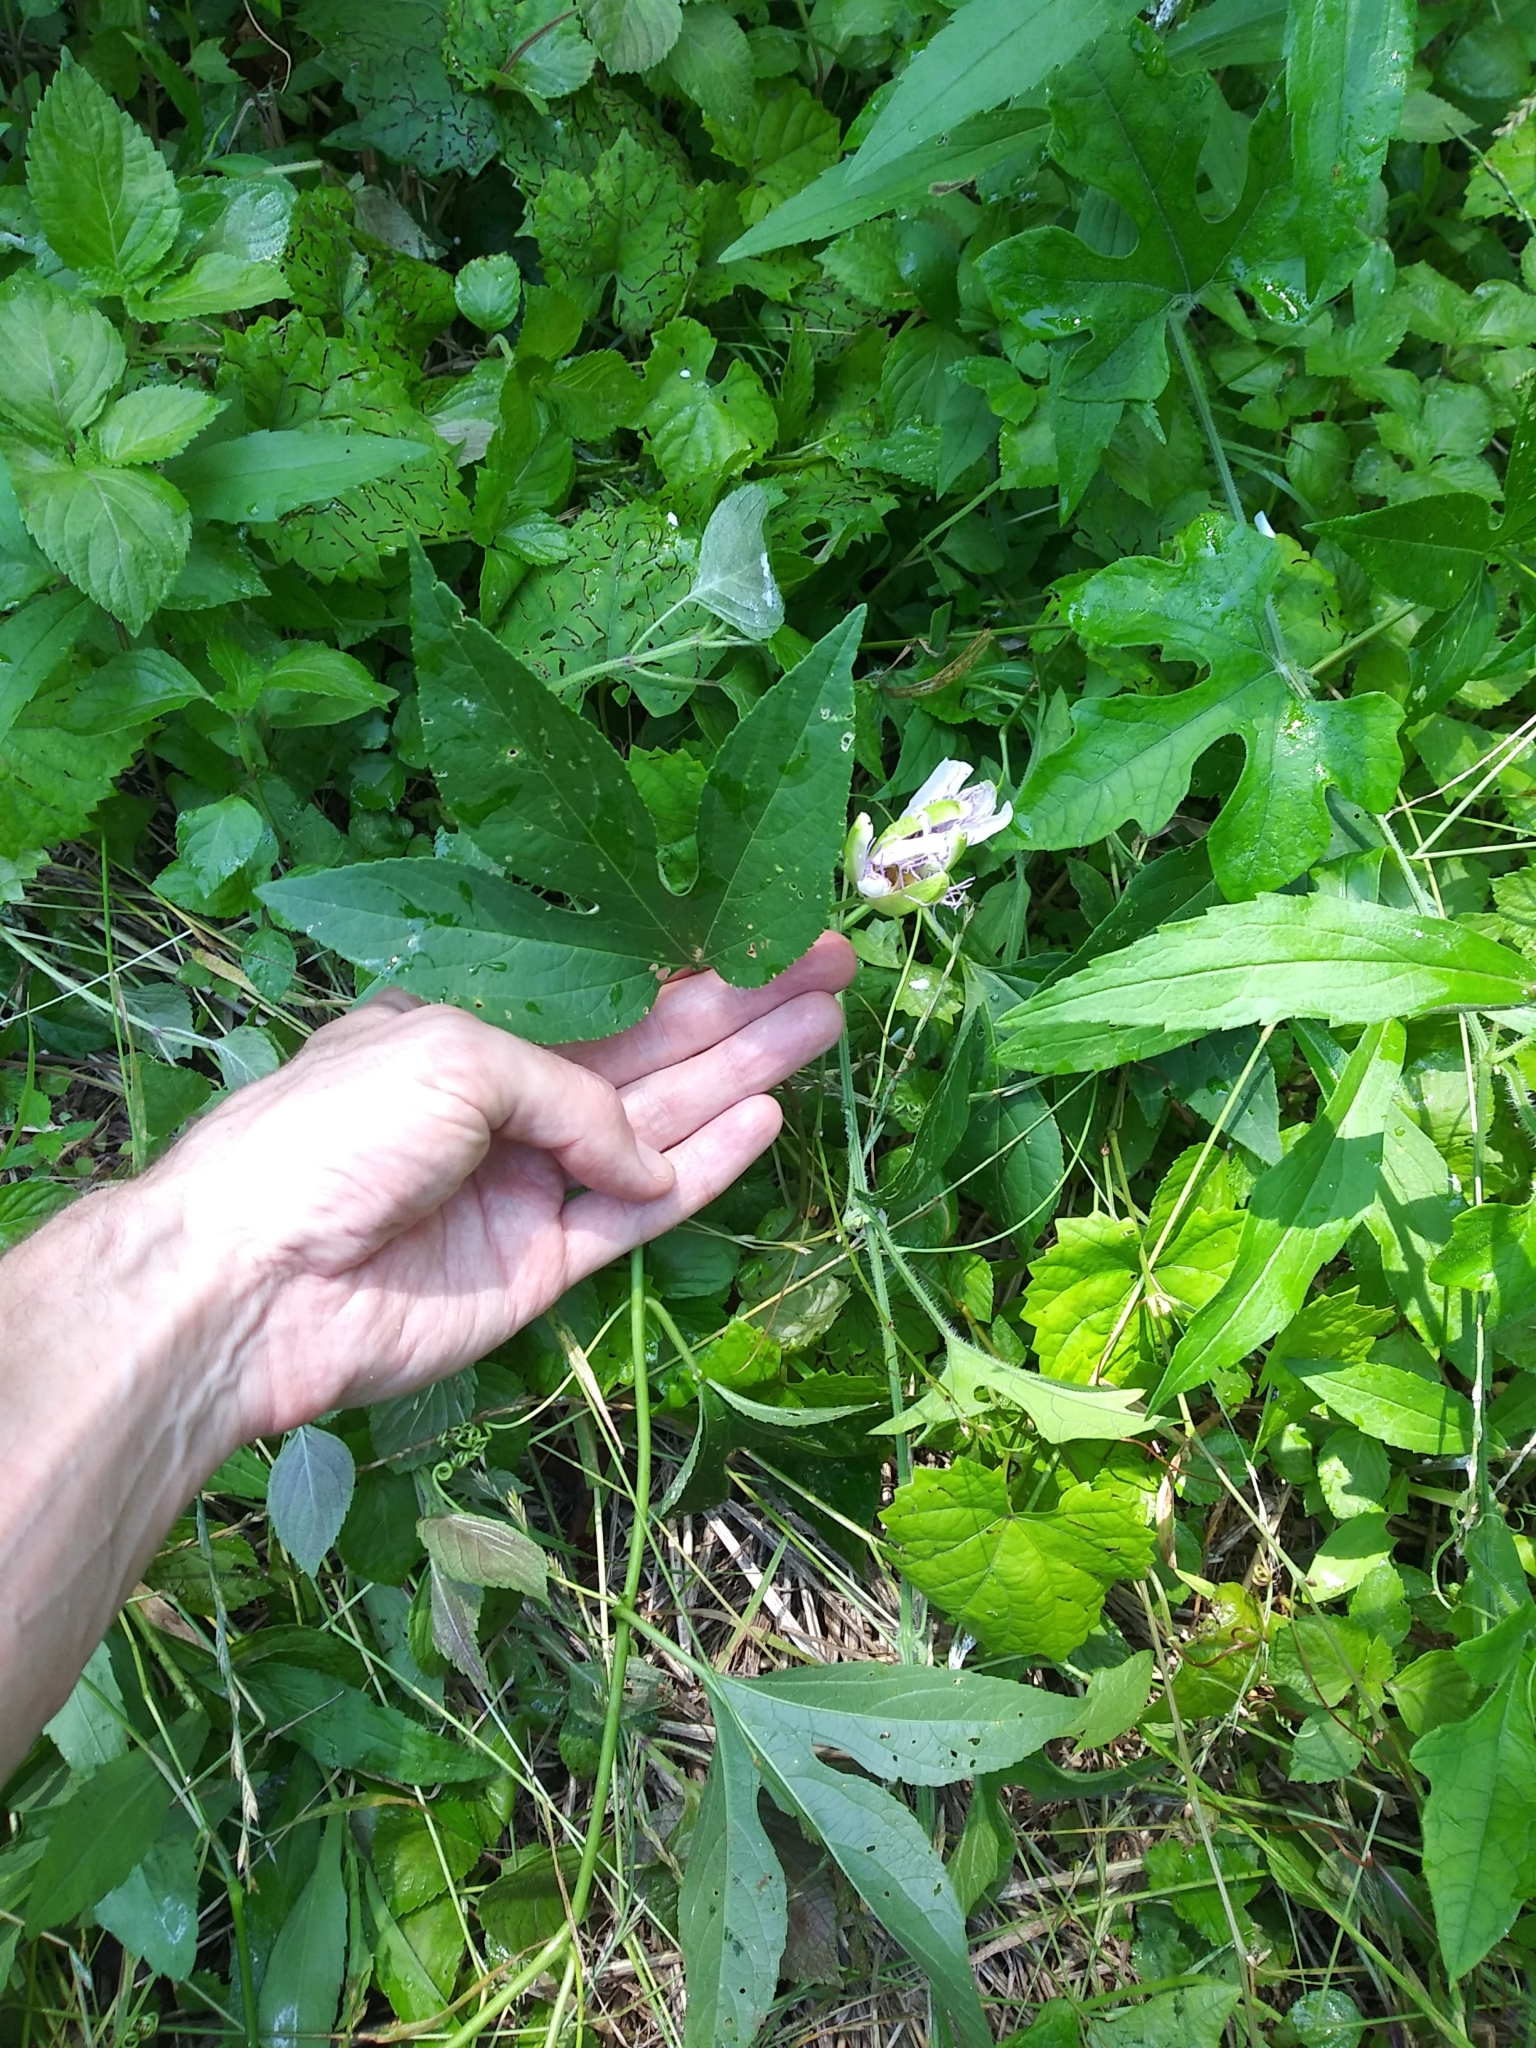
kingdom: Plantae
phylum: Tracheophyta
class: Magnoliopsida
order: Malpighiales
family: Passifloraceae
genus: Passiflora
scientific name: Passiflora incarnata
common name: Apricot-vine
